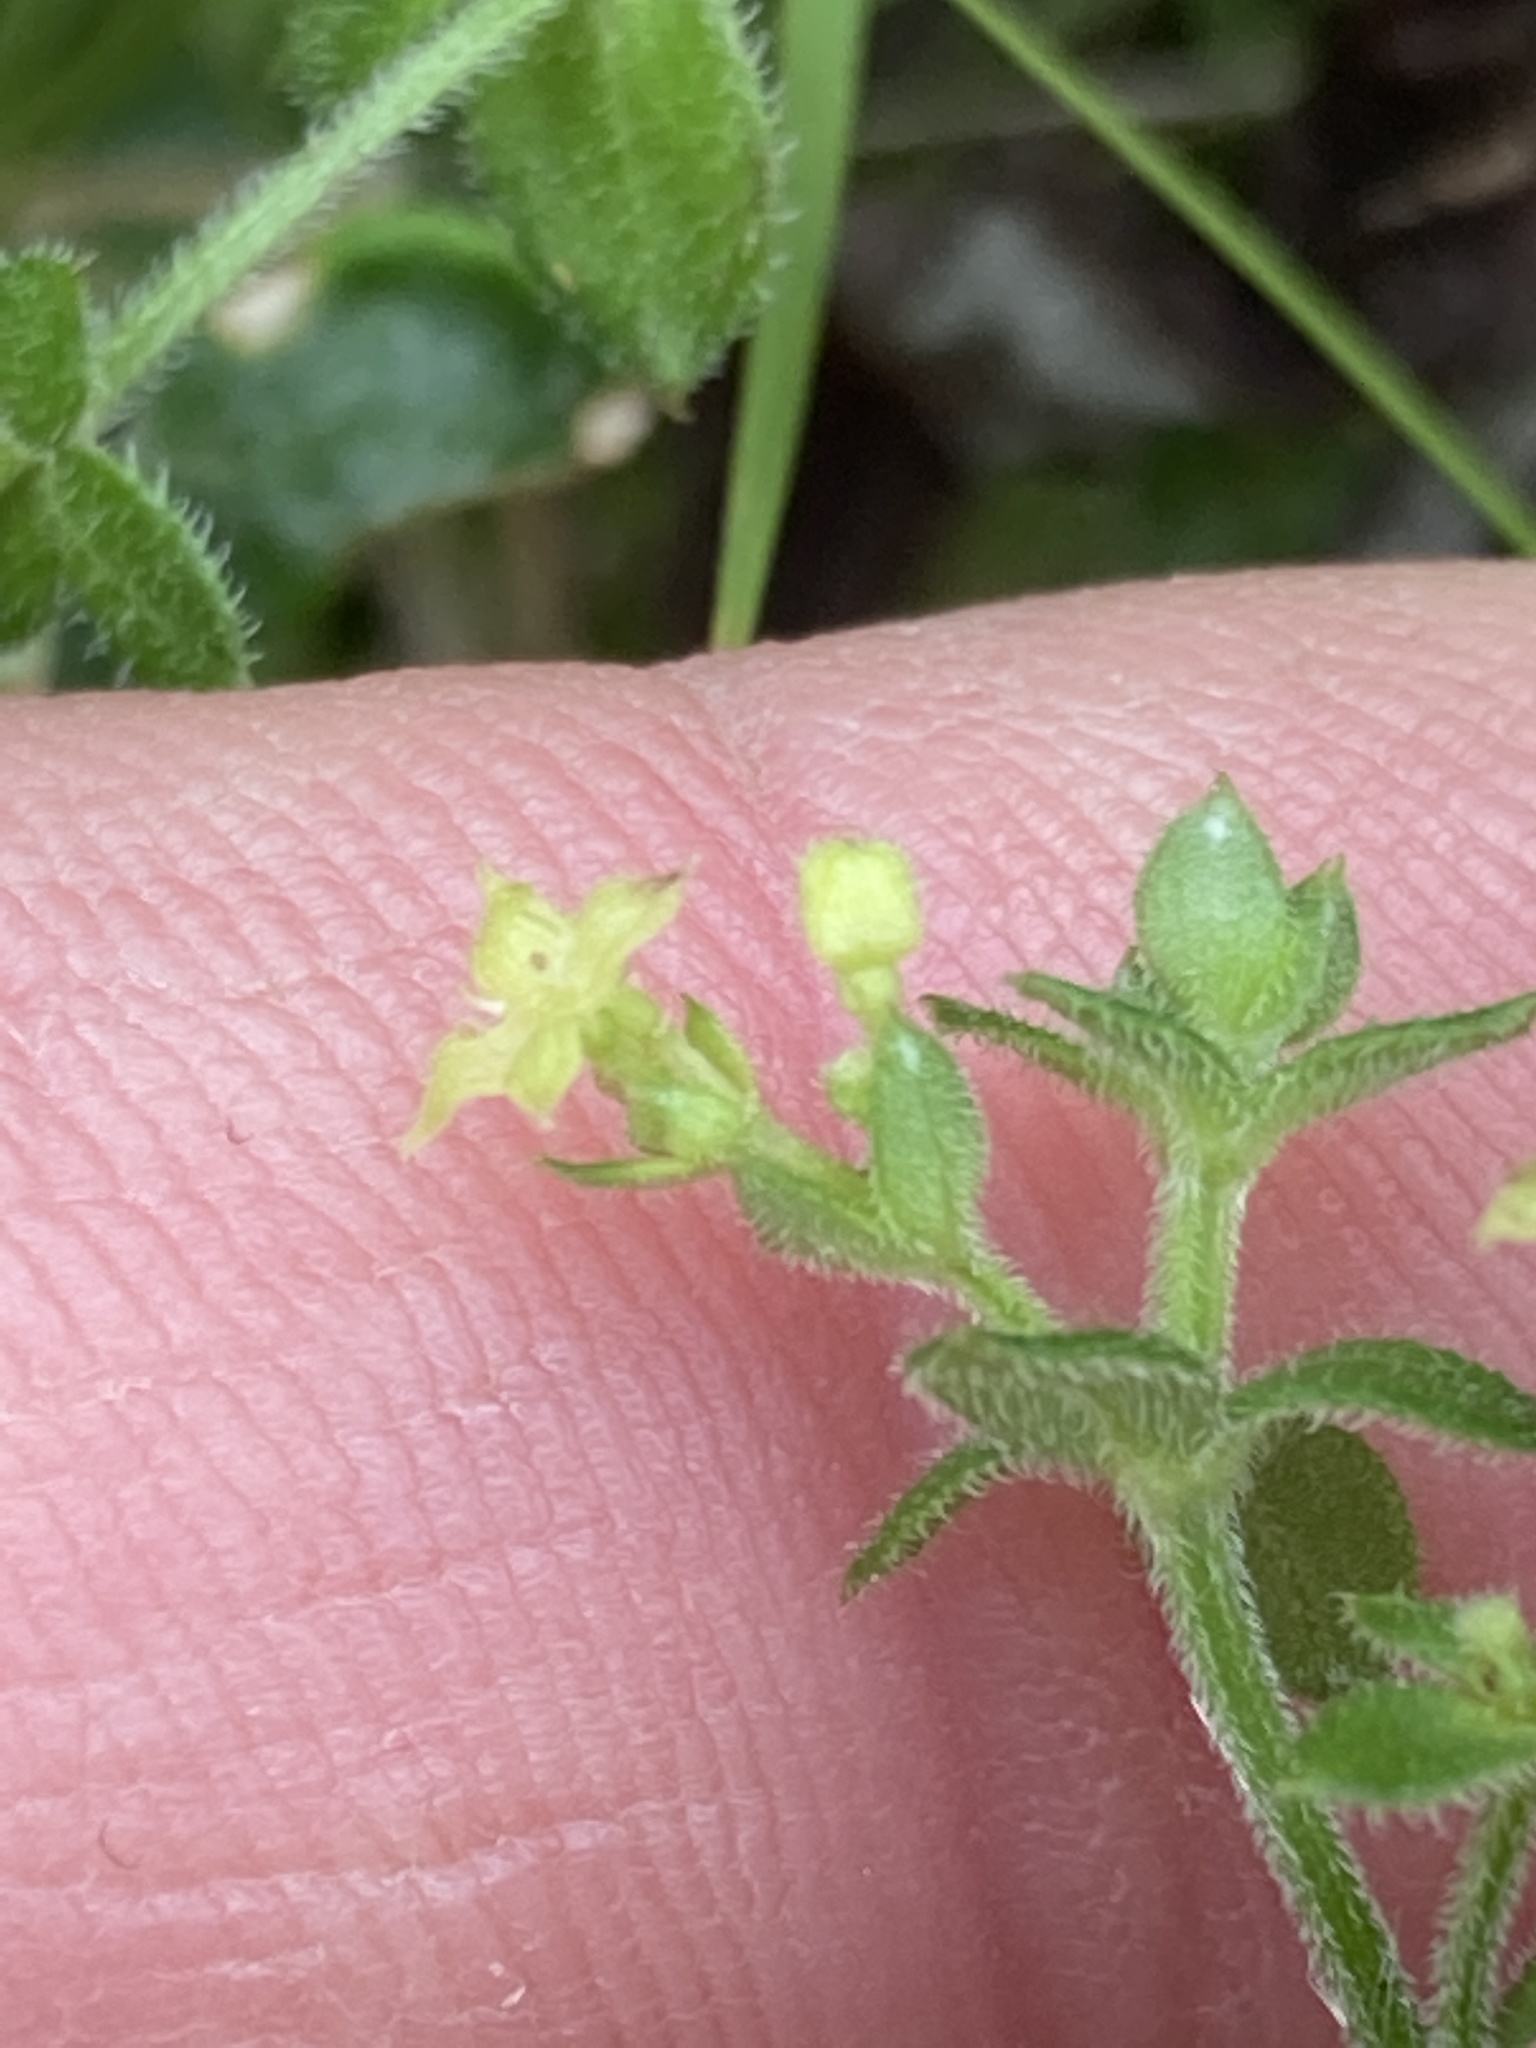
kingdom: Plantae
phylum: Tracheophyta
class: Magnoliopsida
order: Gentianales
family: Rubiaceae
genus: Galium
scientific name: Galium porrigens
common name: Climbing bedstraw
